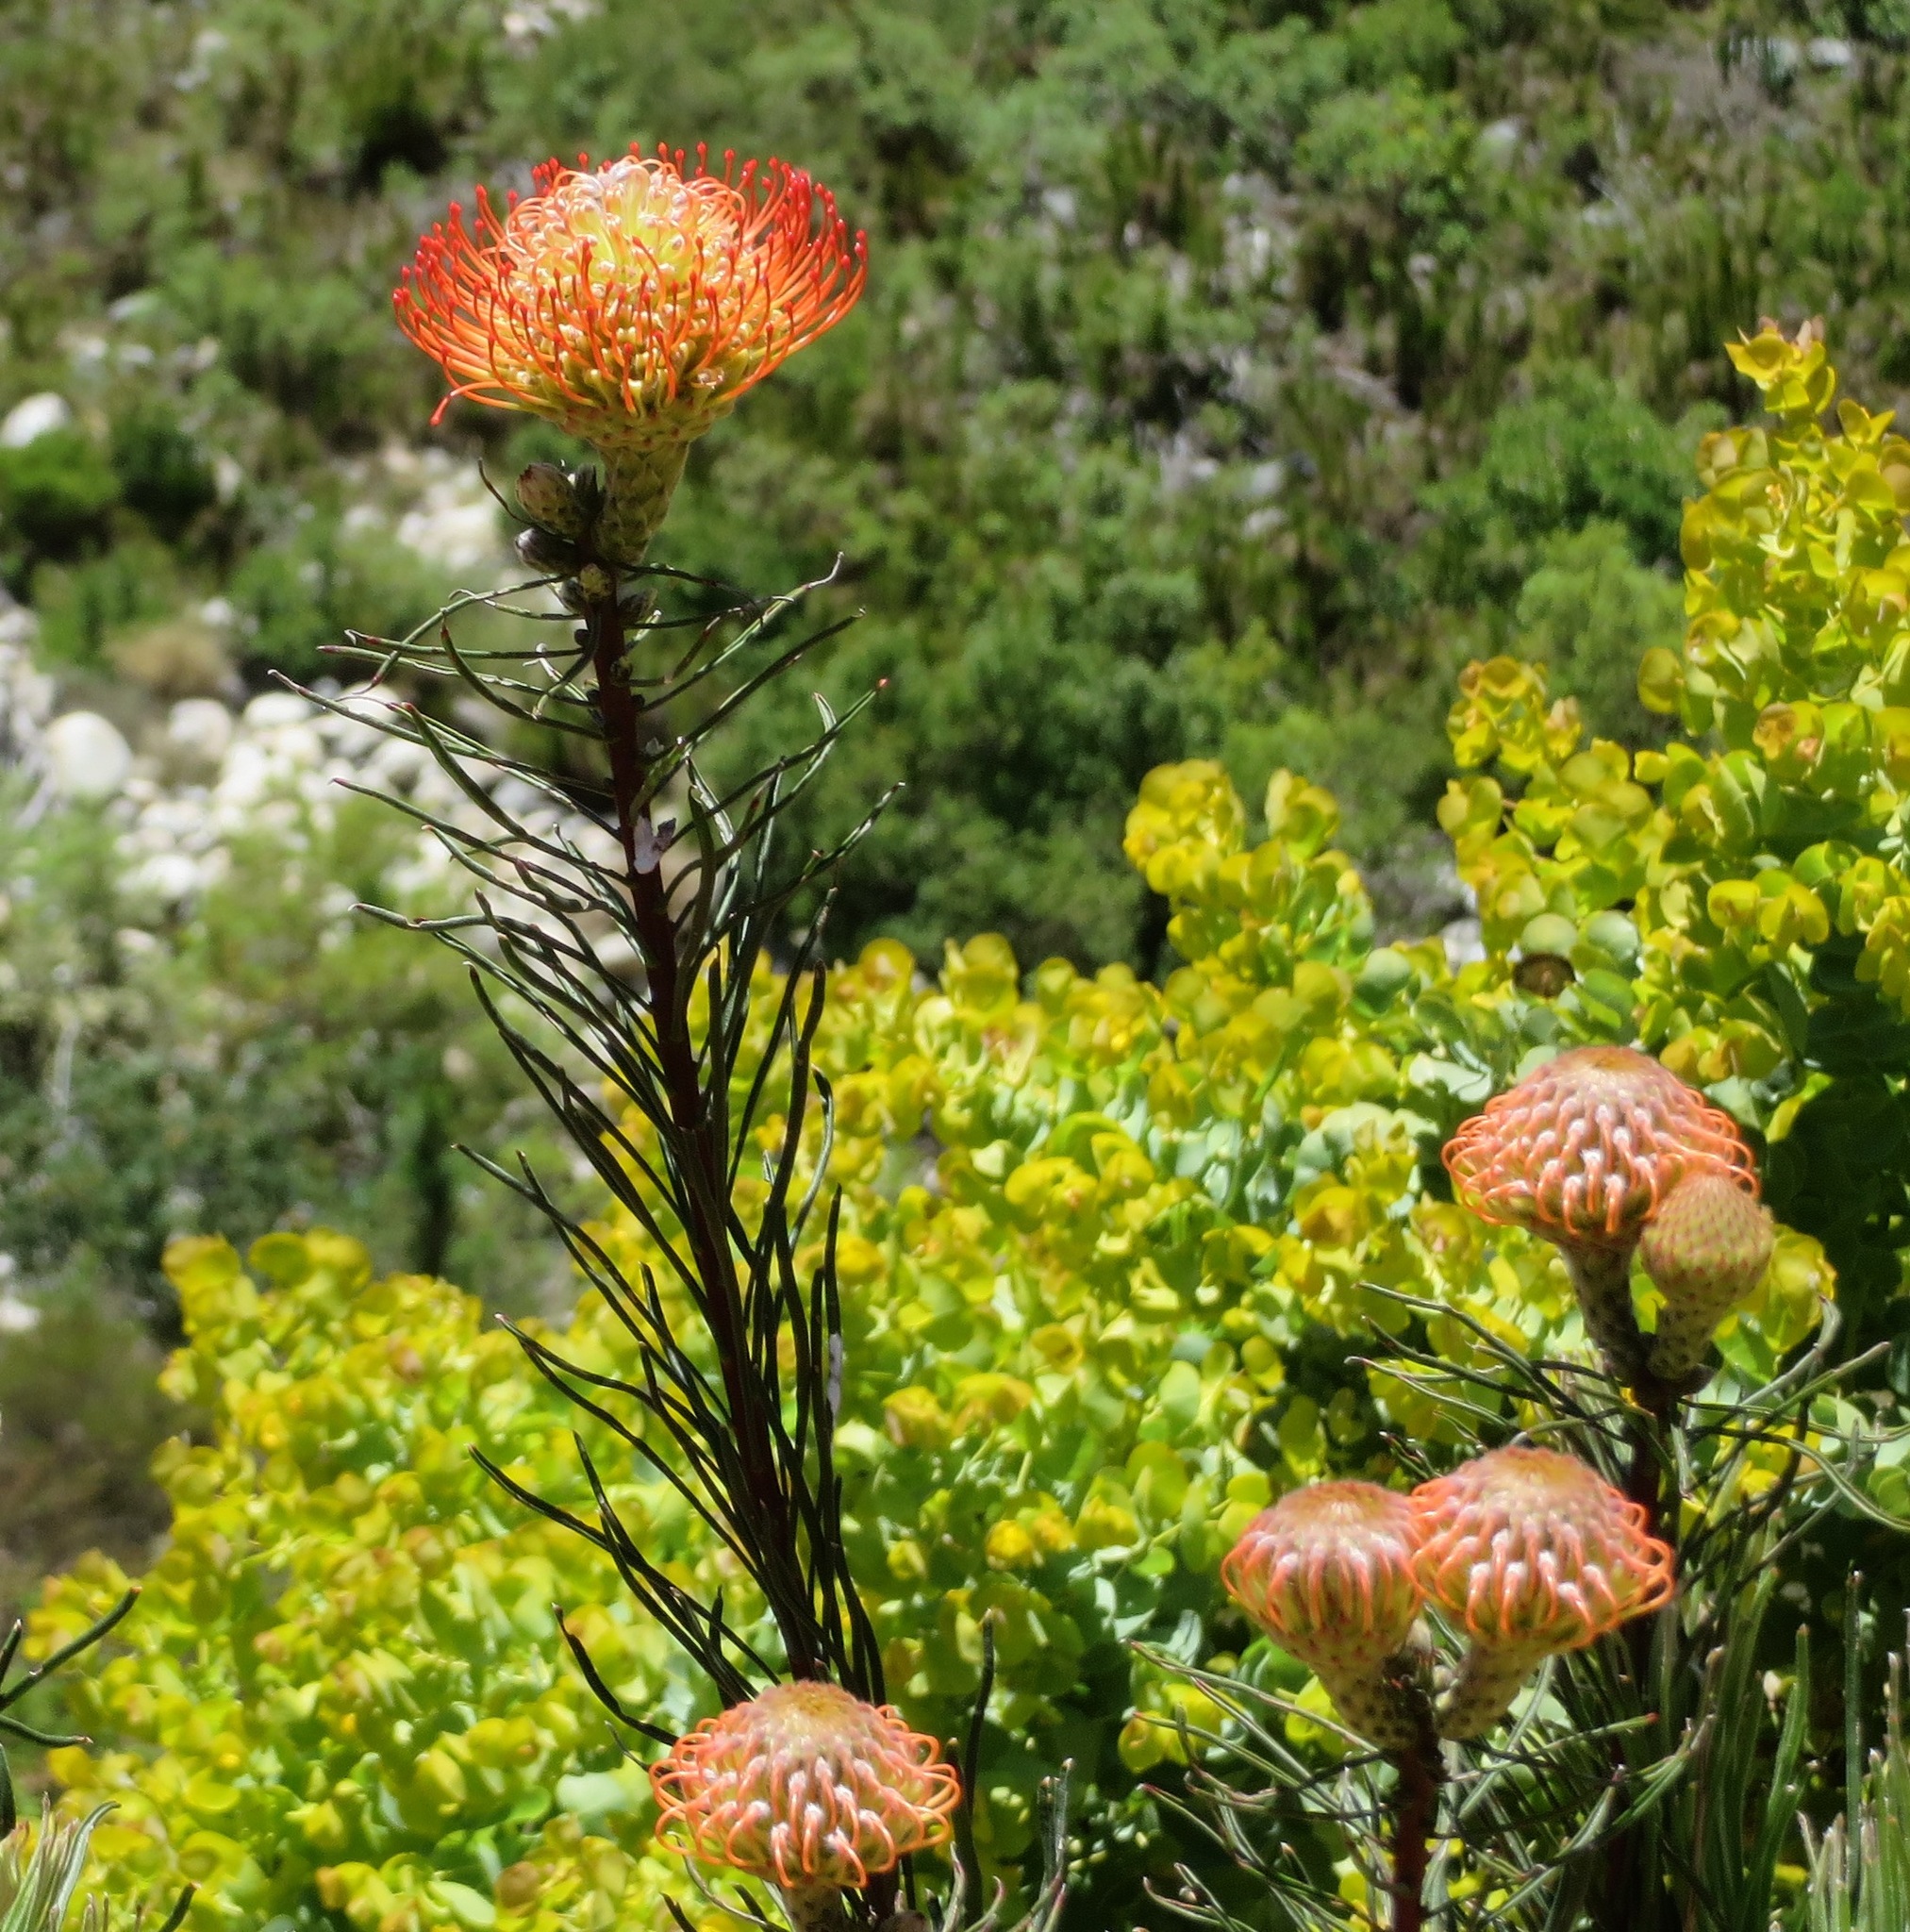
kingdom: Plantae
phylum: Tracheophyta
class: Magnoliopsida
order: Proteales
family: Proteaceae
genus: Leucospermum
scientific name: Leucospermum lineare
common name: Needle-leaf pincushion
